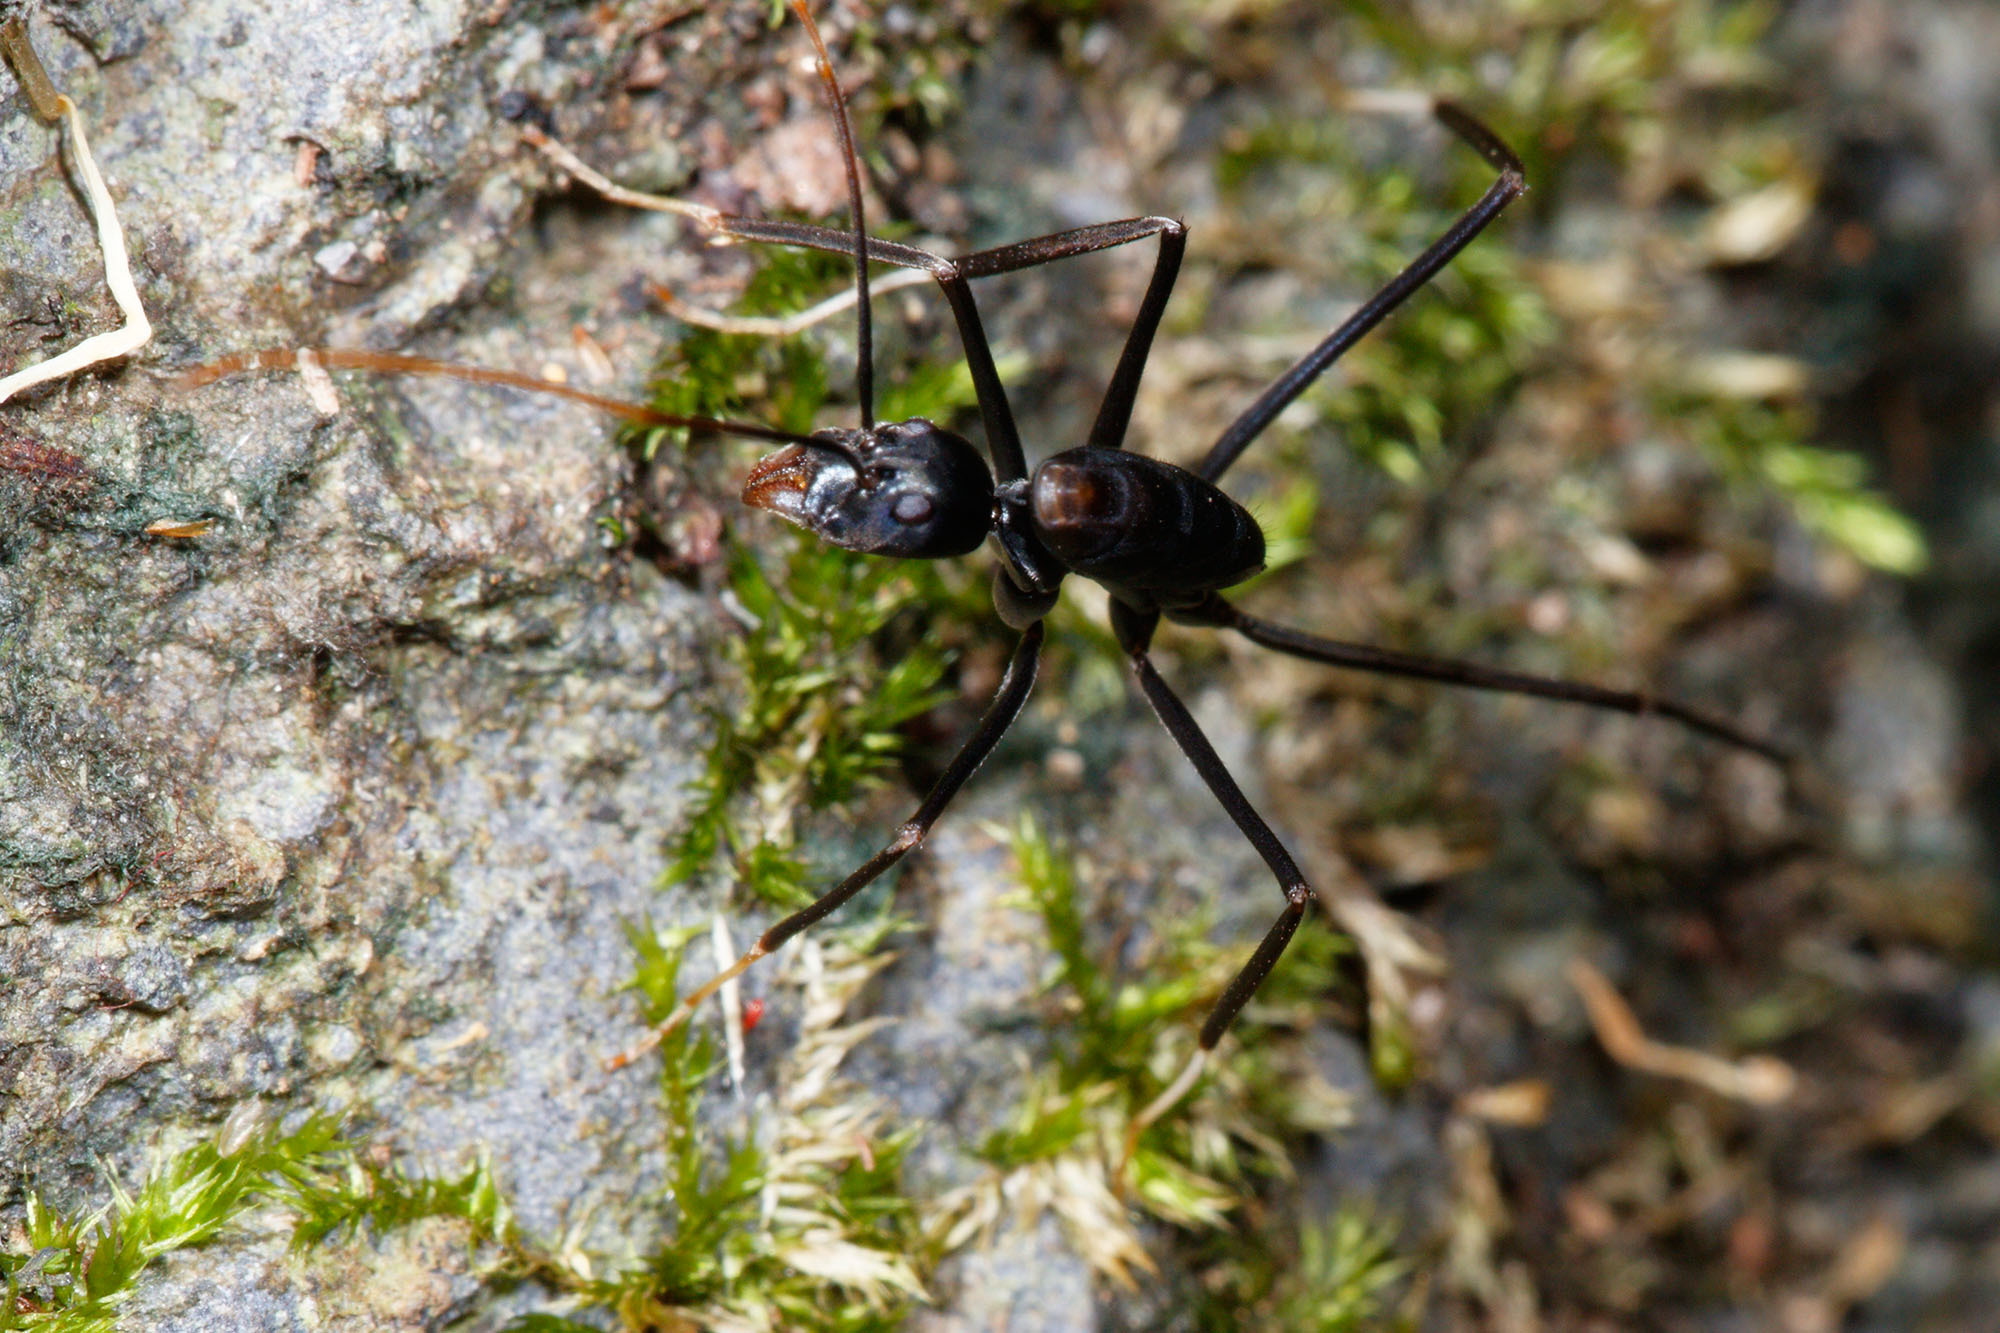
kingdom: Animalia
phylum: Arthropoda
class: Insecta
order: Hymenoptera
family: Formicidae
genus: Leptomyrmex
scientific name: Leptomyrmex unicolor
